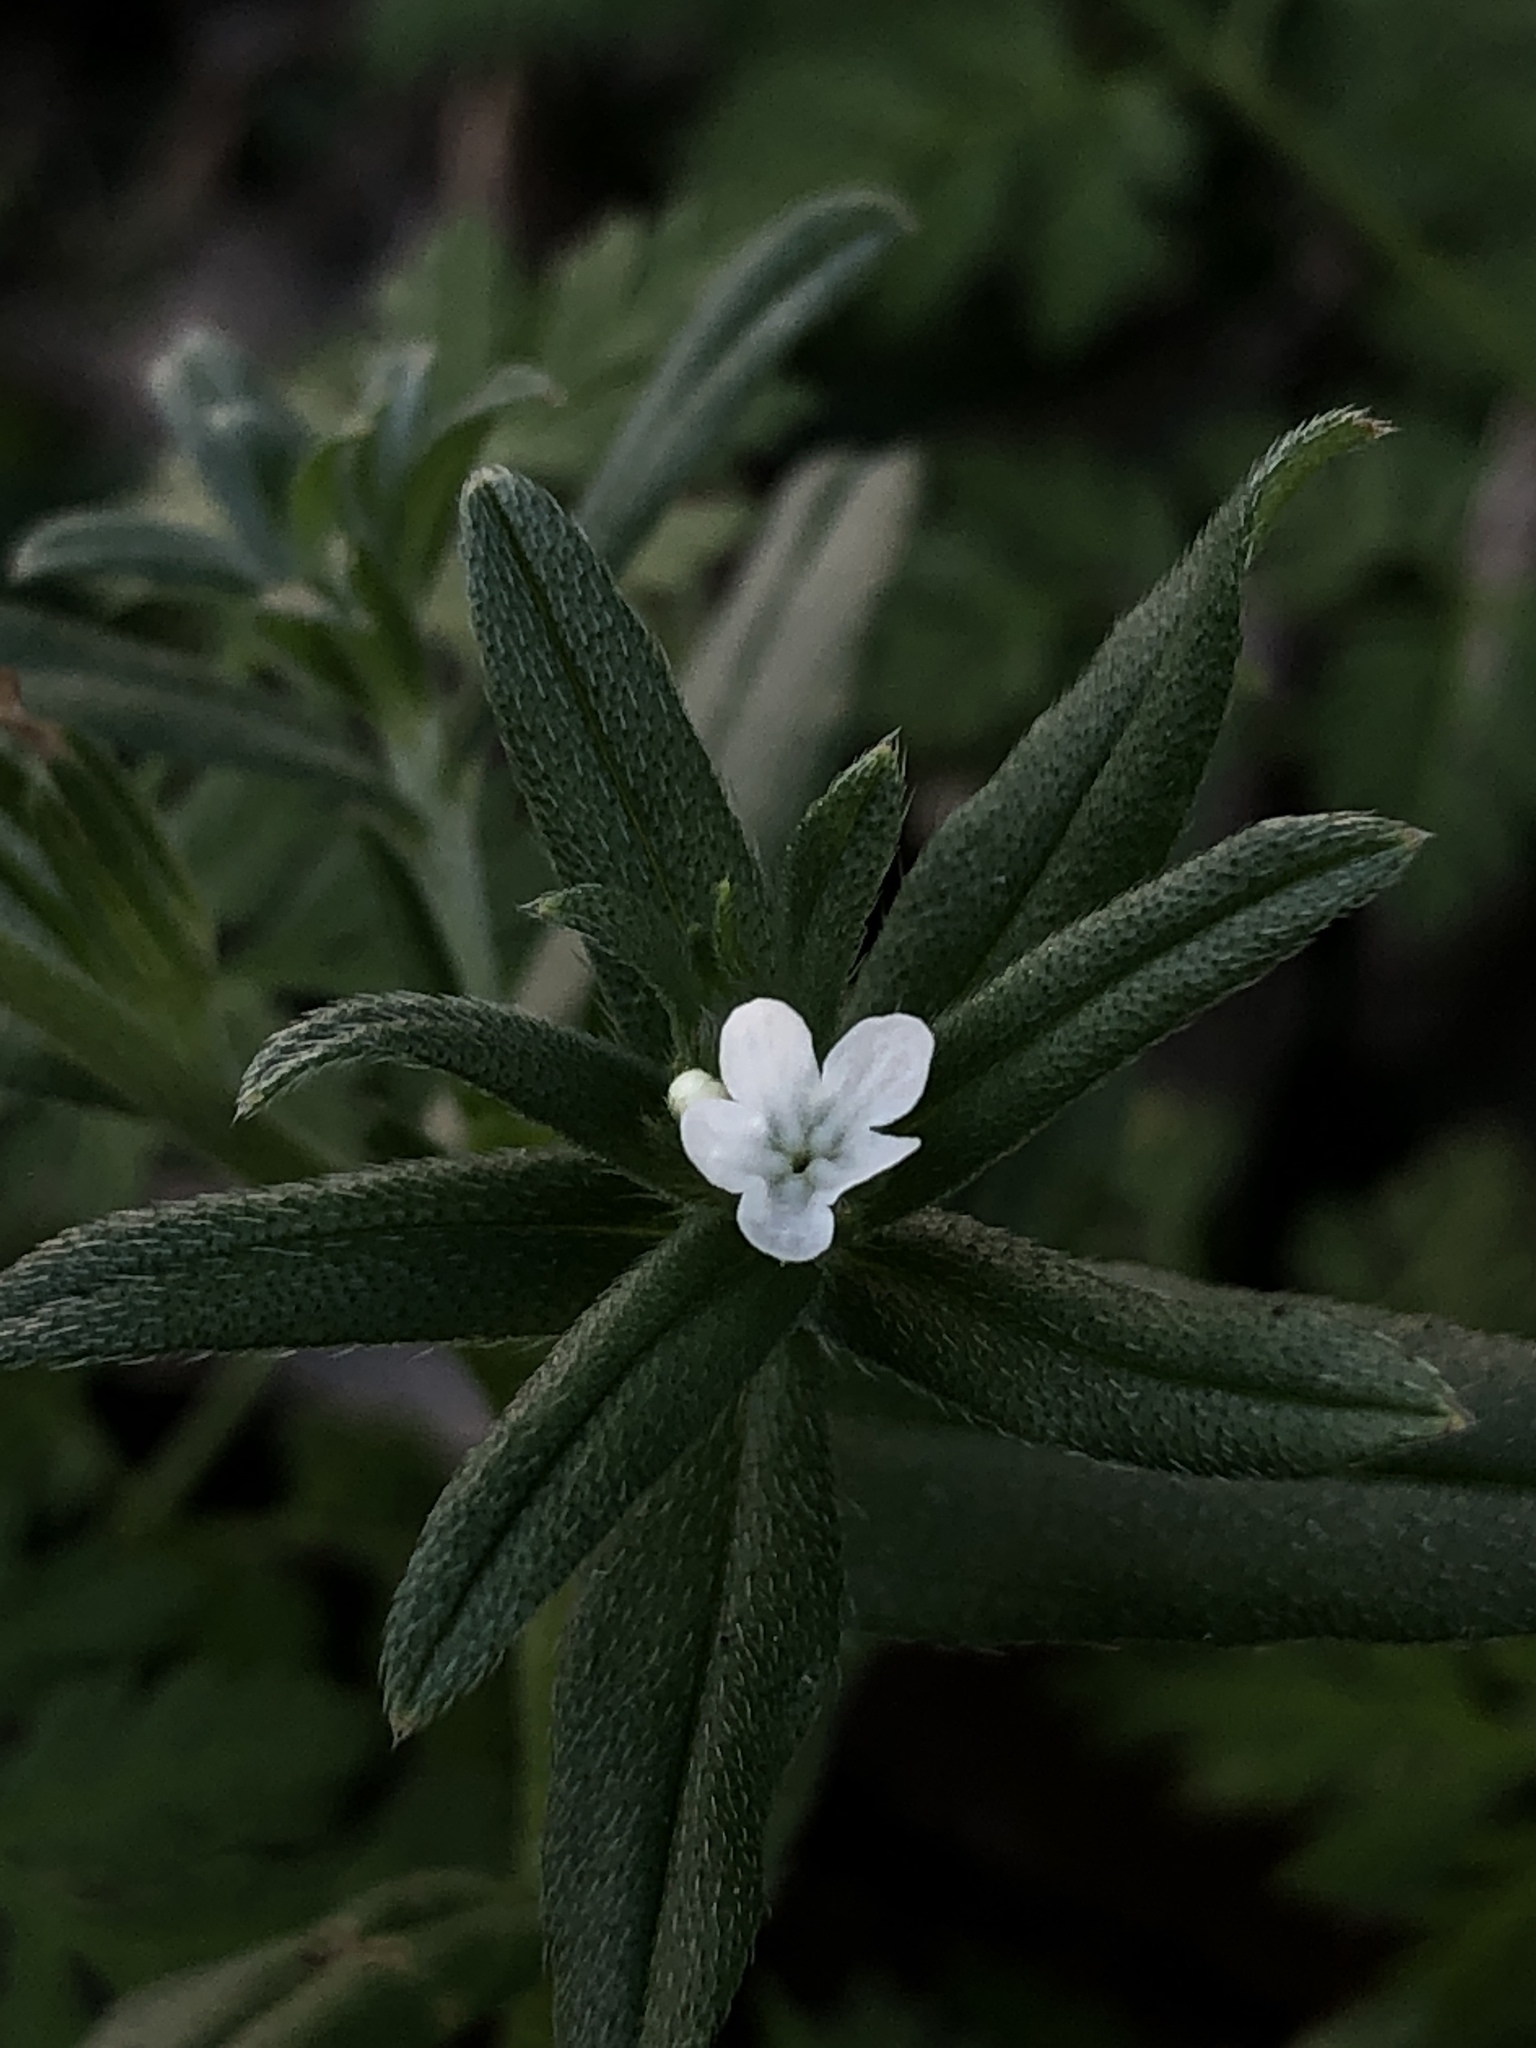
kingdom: Plantae
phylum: Tracheophyta
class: Magnoliopsida
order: Boraginales
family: Boraginaceae
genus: Buglossoides
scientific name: Buglossoides arvensis
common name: Corn gromwell
